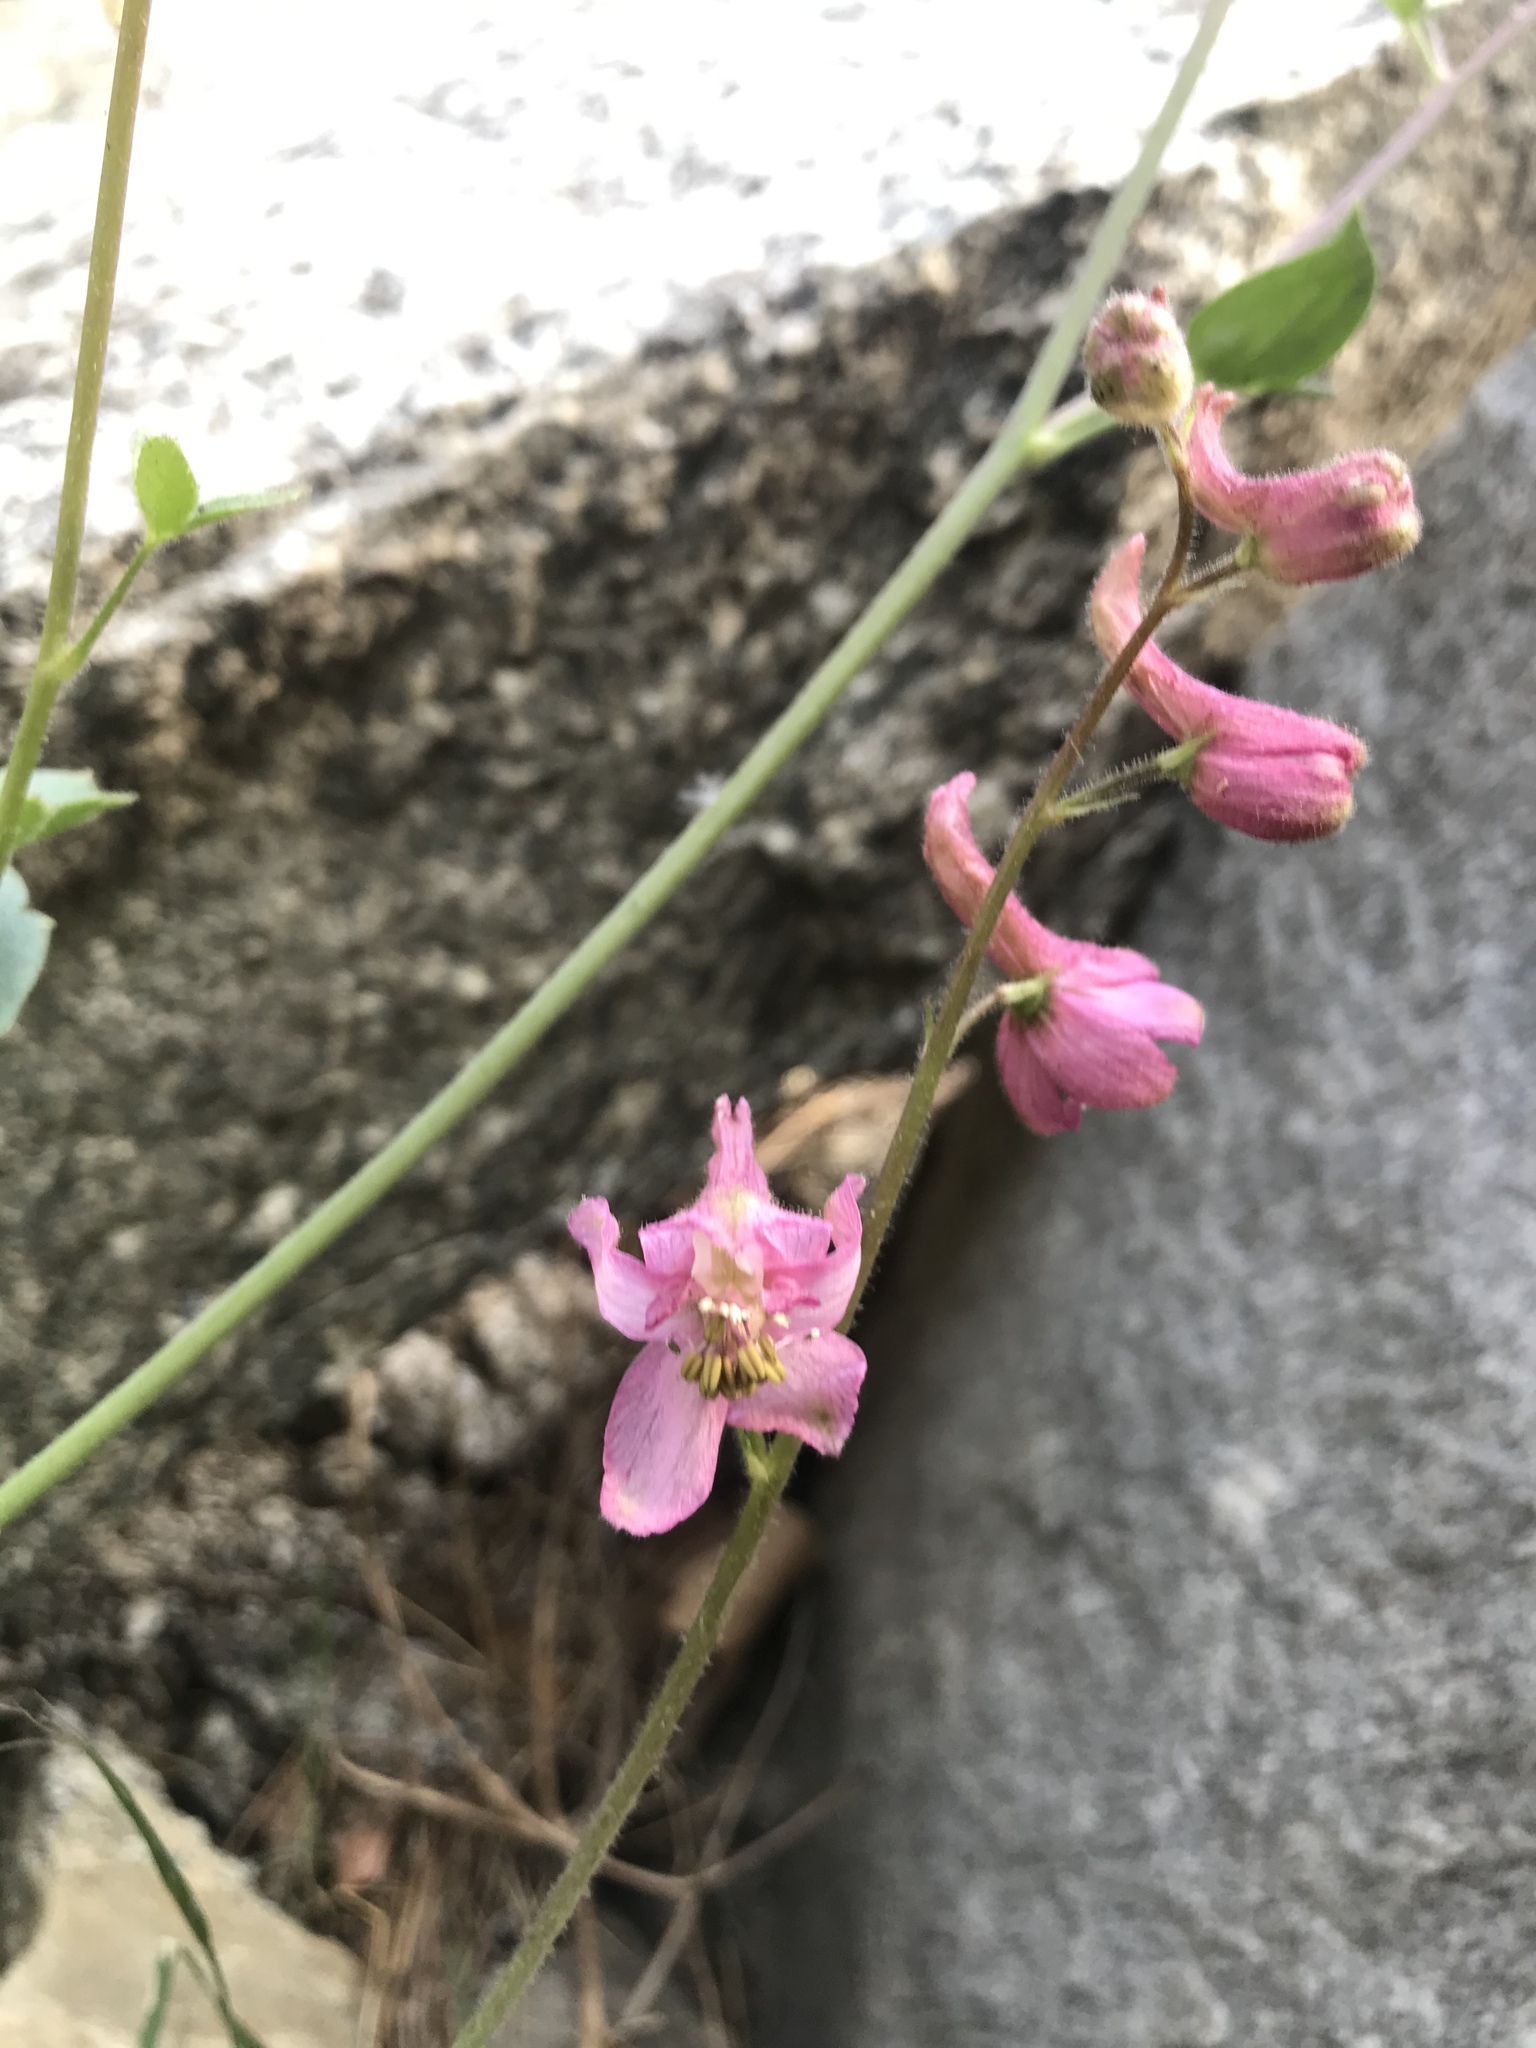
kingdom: Plantae
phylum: Tracheophyta
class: Magnoliopsida
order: Ranunculales
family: Ranunculaceae
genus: Delphinium
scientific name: Delphinium purpusii
